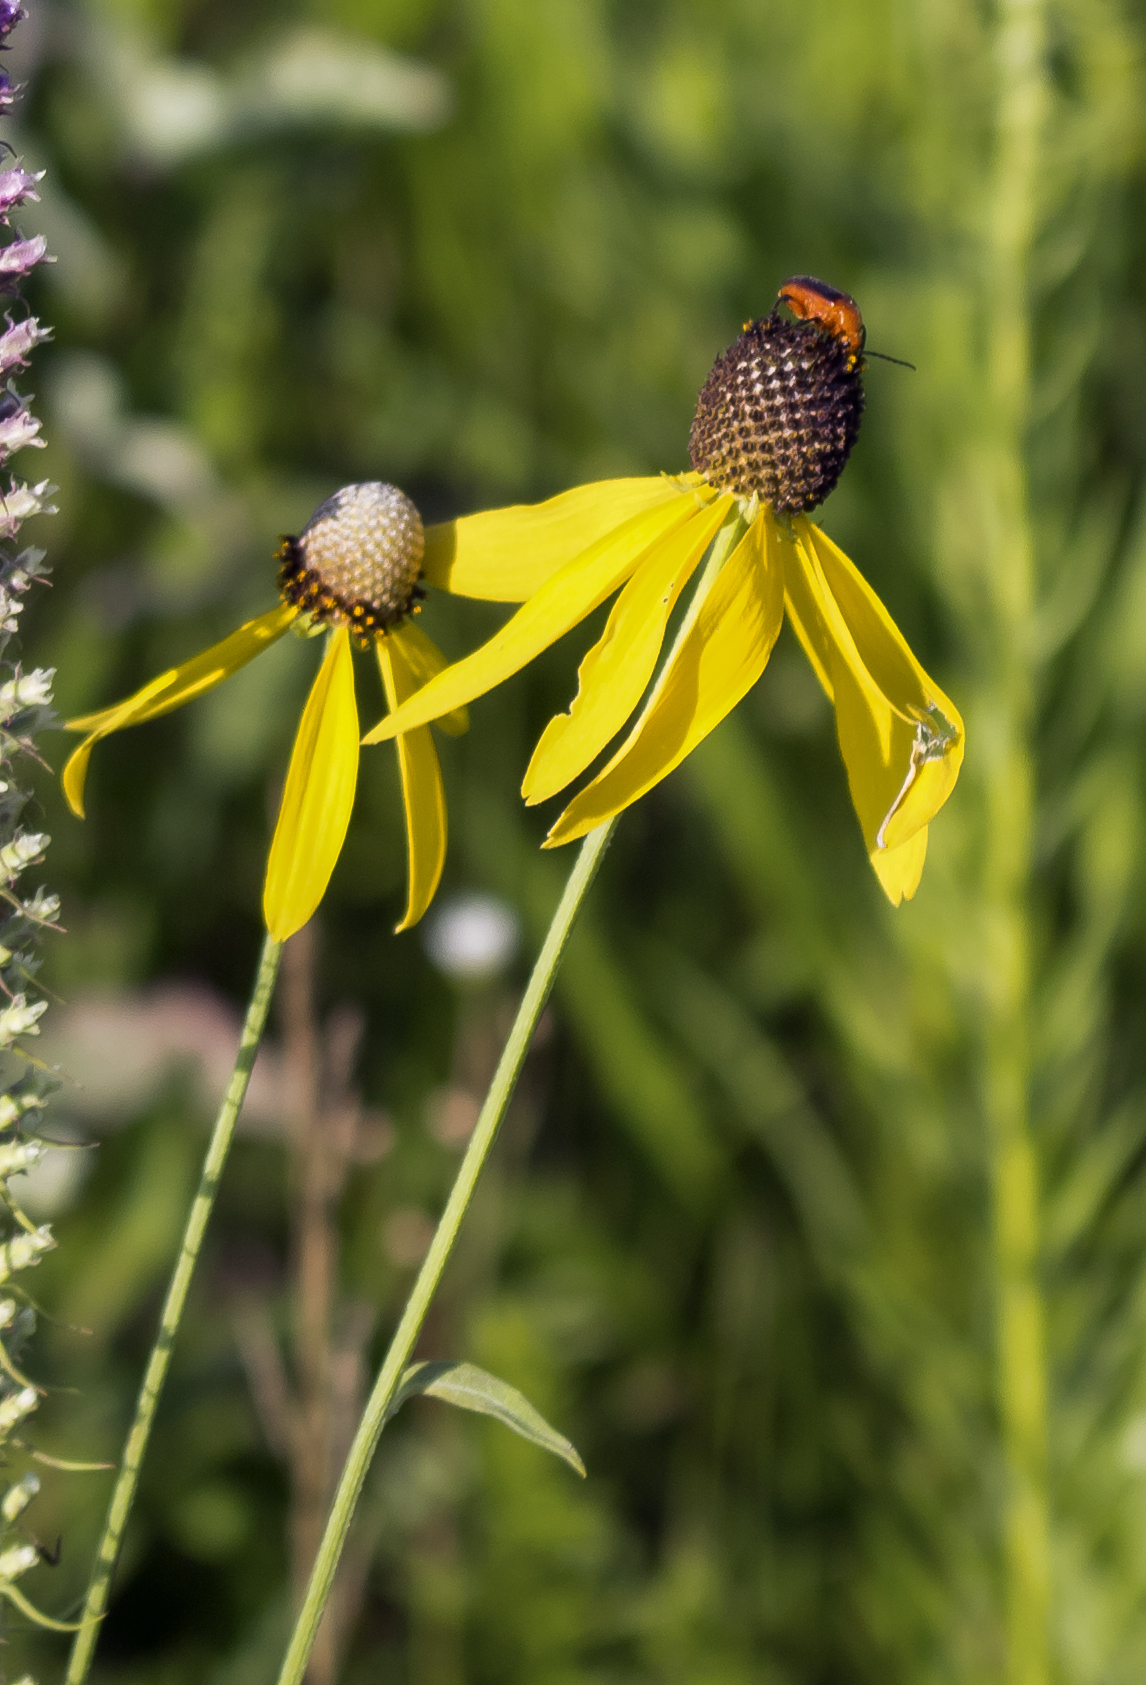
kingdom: Plantae
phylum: Tracheophyta
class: Magnoliopsida
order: Asterales
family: Asteraceae
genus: Ratibida
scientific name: Ratibida pinnata
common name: Drooping prairie-coneflower
